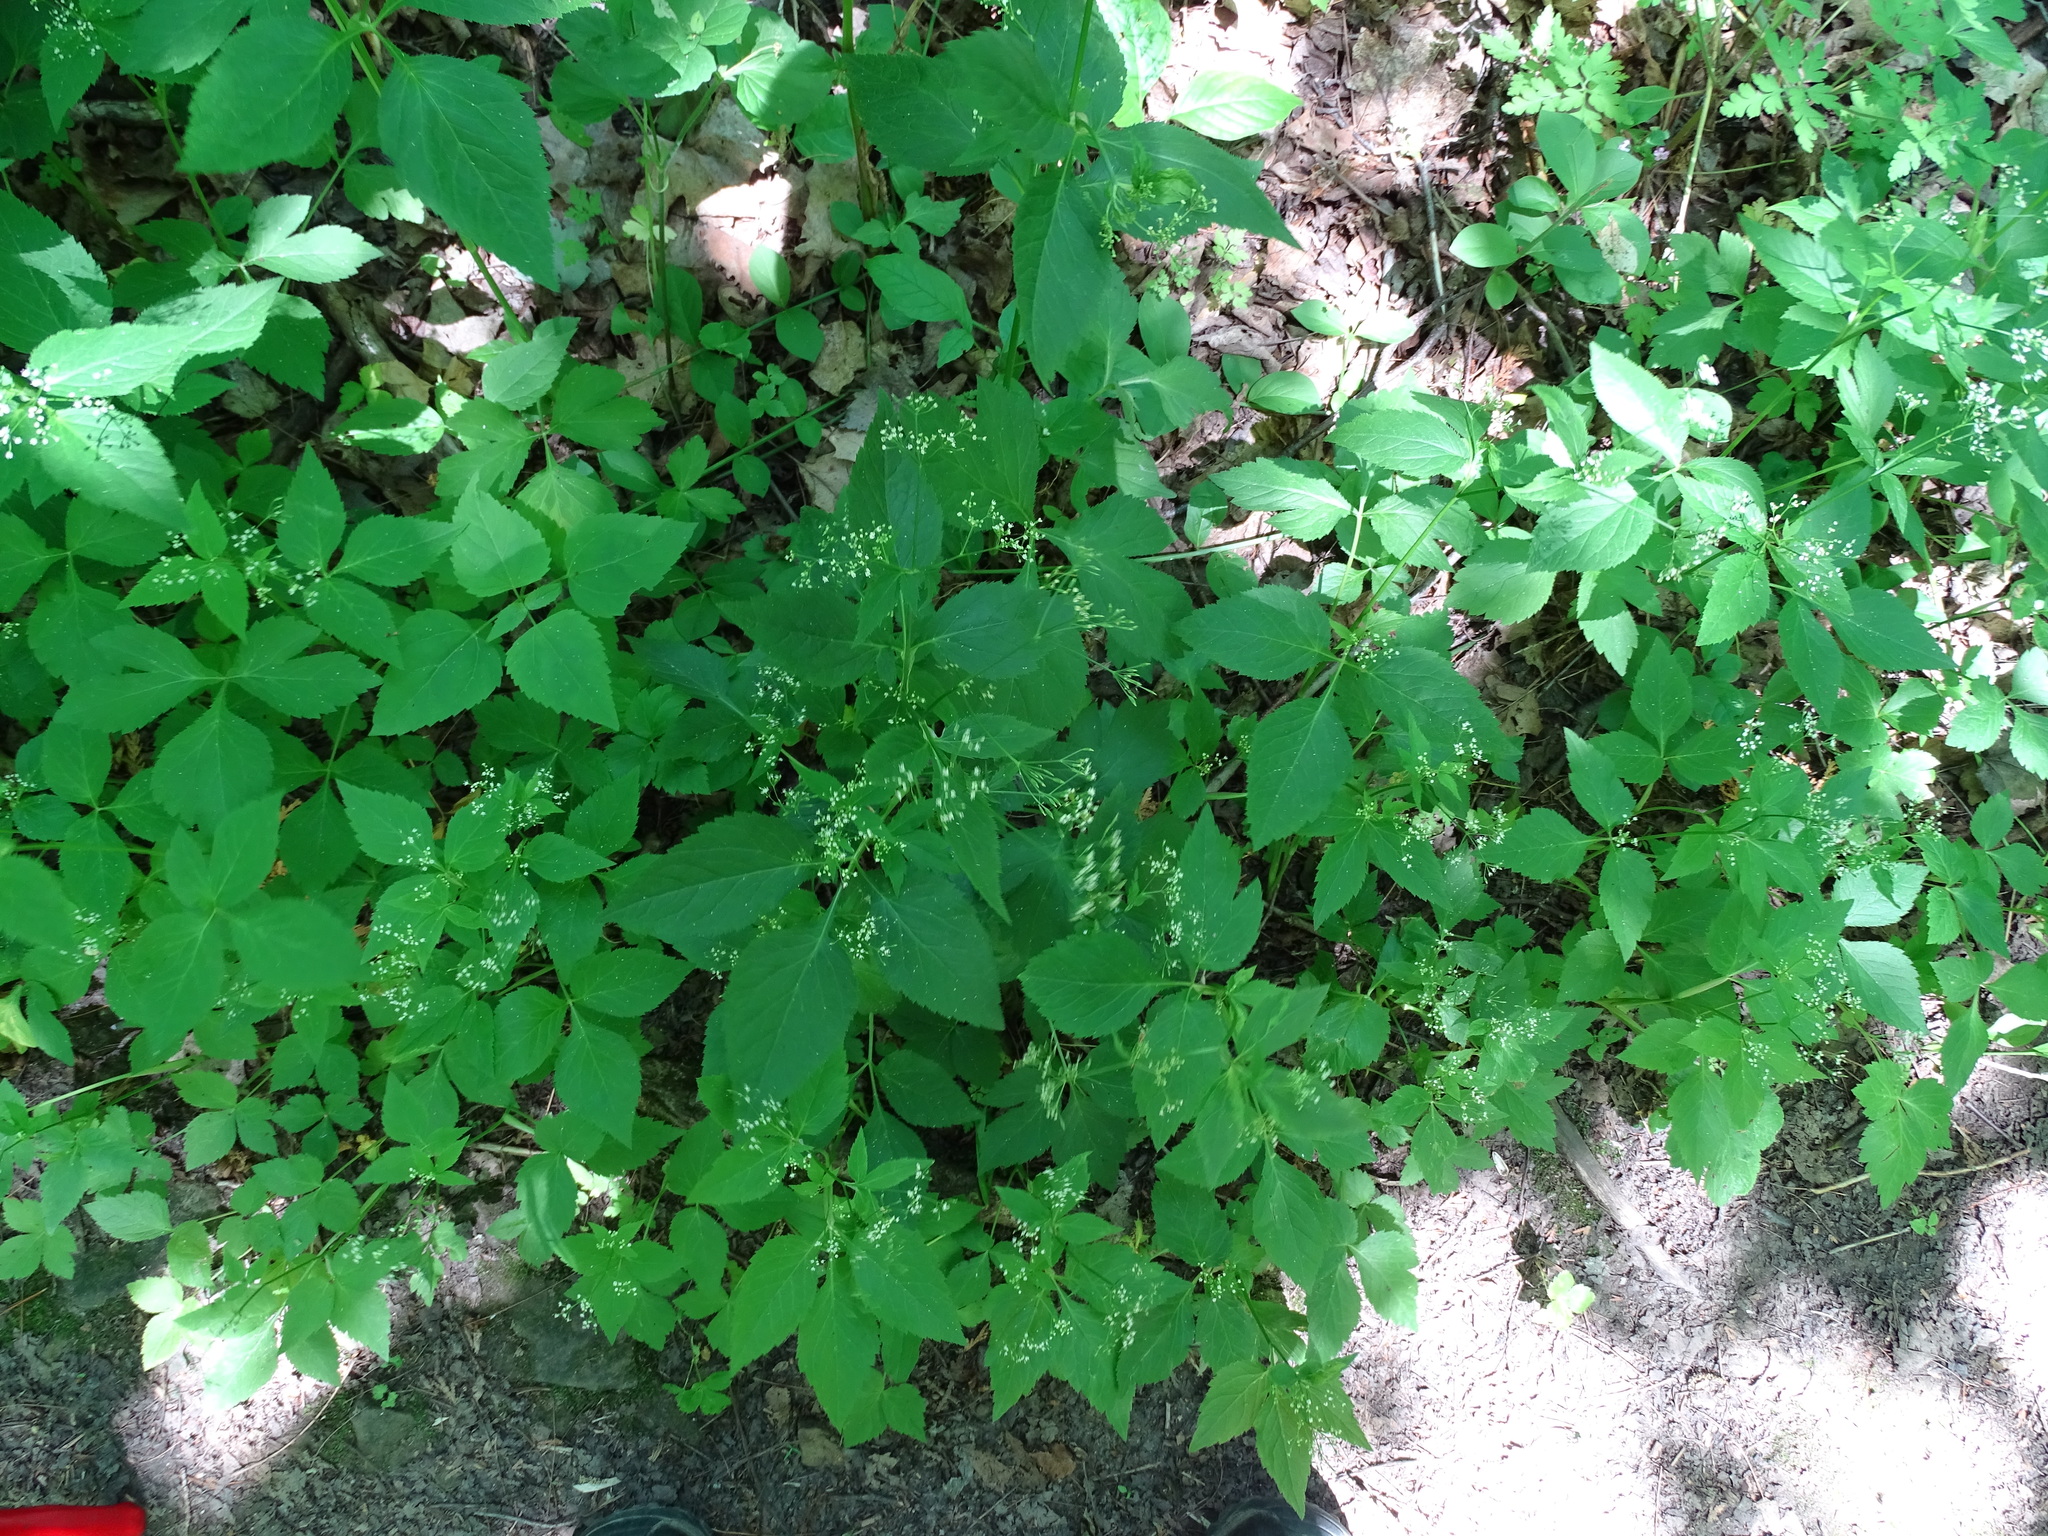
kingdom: Plantae
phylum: Tracheophyta
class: Magnoliopsida
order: Apiales
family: Apiaceae
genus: Cryptotaenia
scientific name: Cryptotaenia canadensis
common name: Honewort
